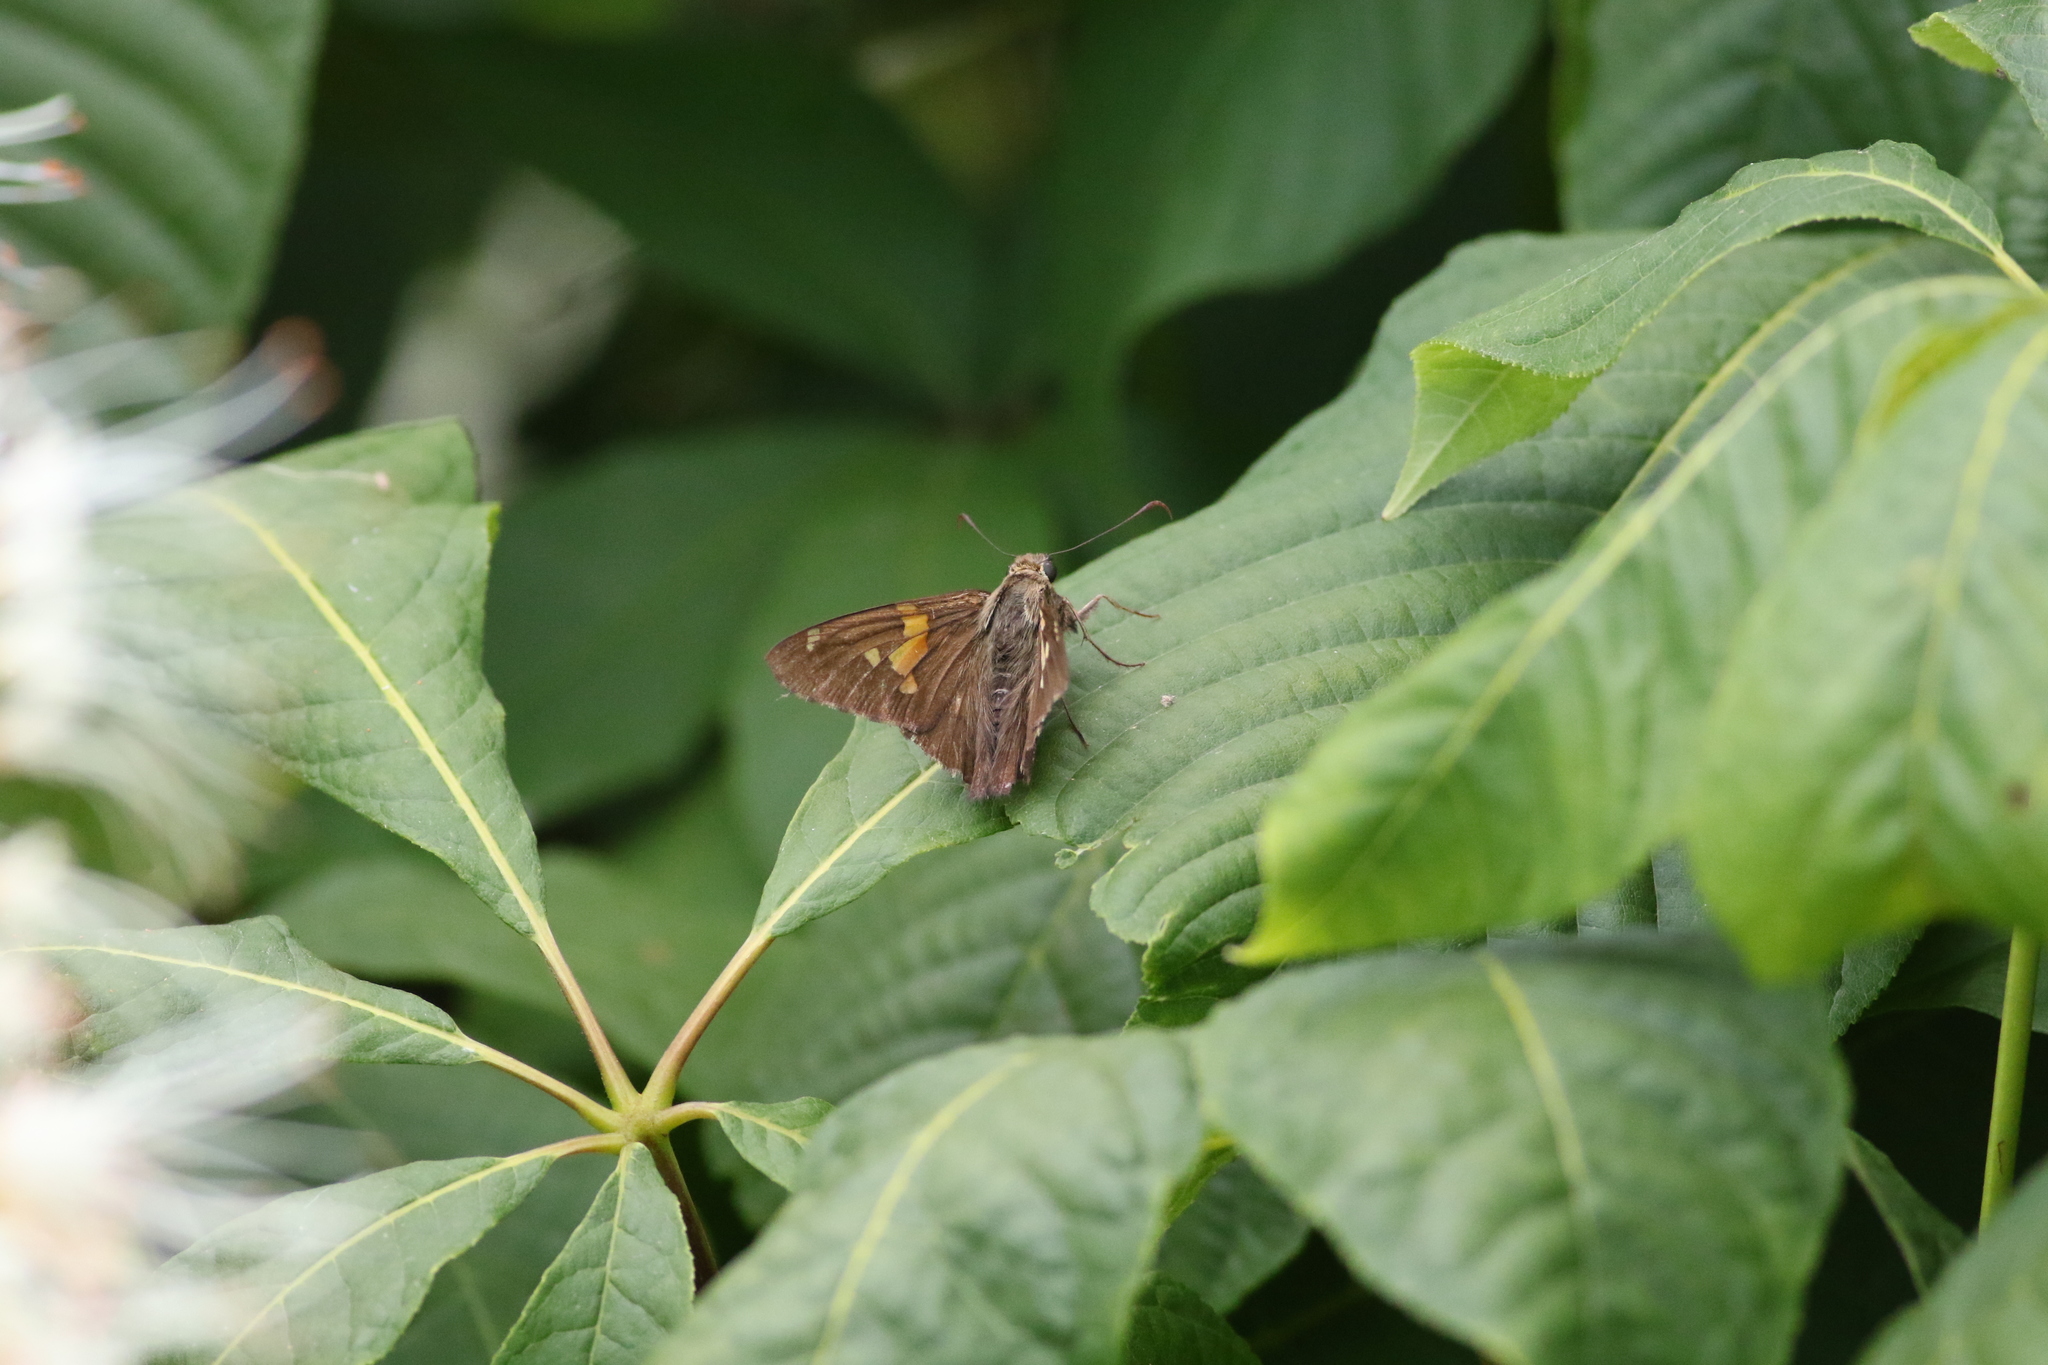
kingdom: Animalia
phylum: Arthropoda
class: Insecta
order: Lepidoptera
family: Hesperiidae
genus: Epargyreus
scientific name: Epargyreus clarus
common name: Silver-spotted skipper
